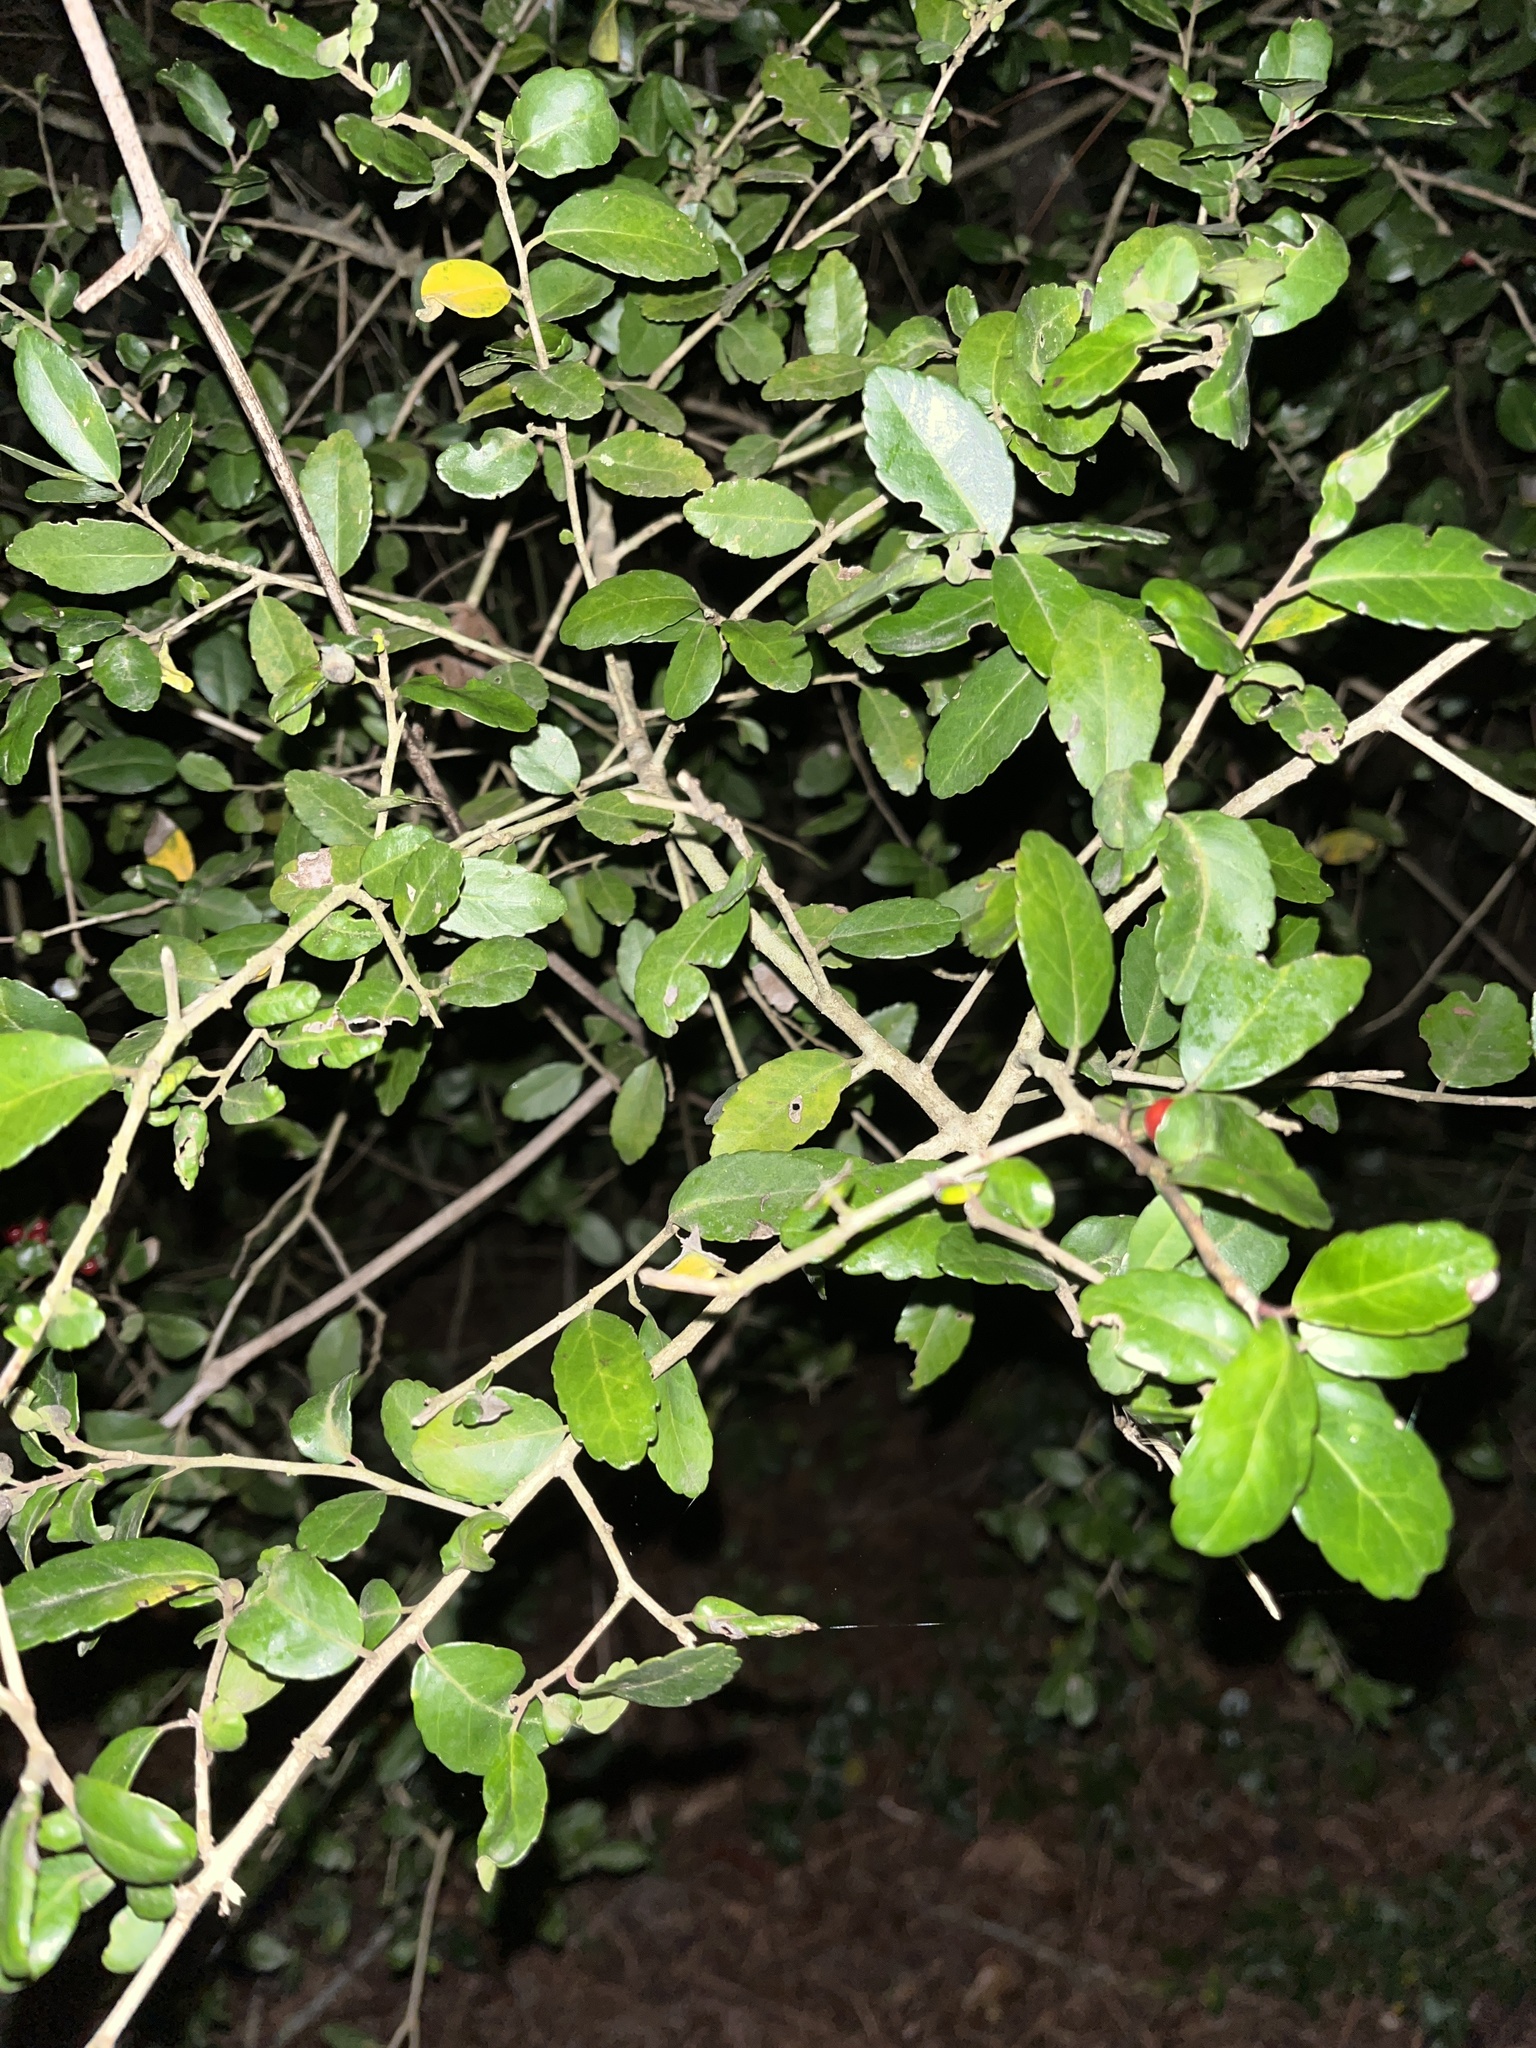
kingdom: Plantae
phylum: Tracheophyta
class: Magnoliopsida
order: Aquifoliales
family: Aquifoliaceae
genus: Ilex
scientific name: Ilex vomitoria
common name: Yaupon holly
